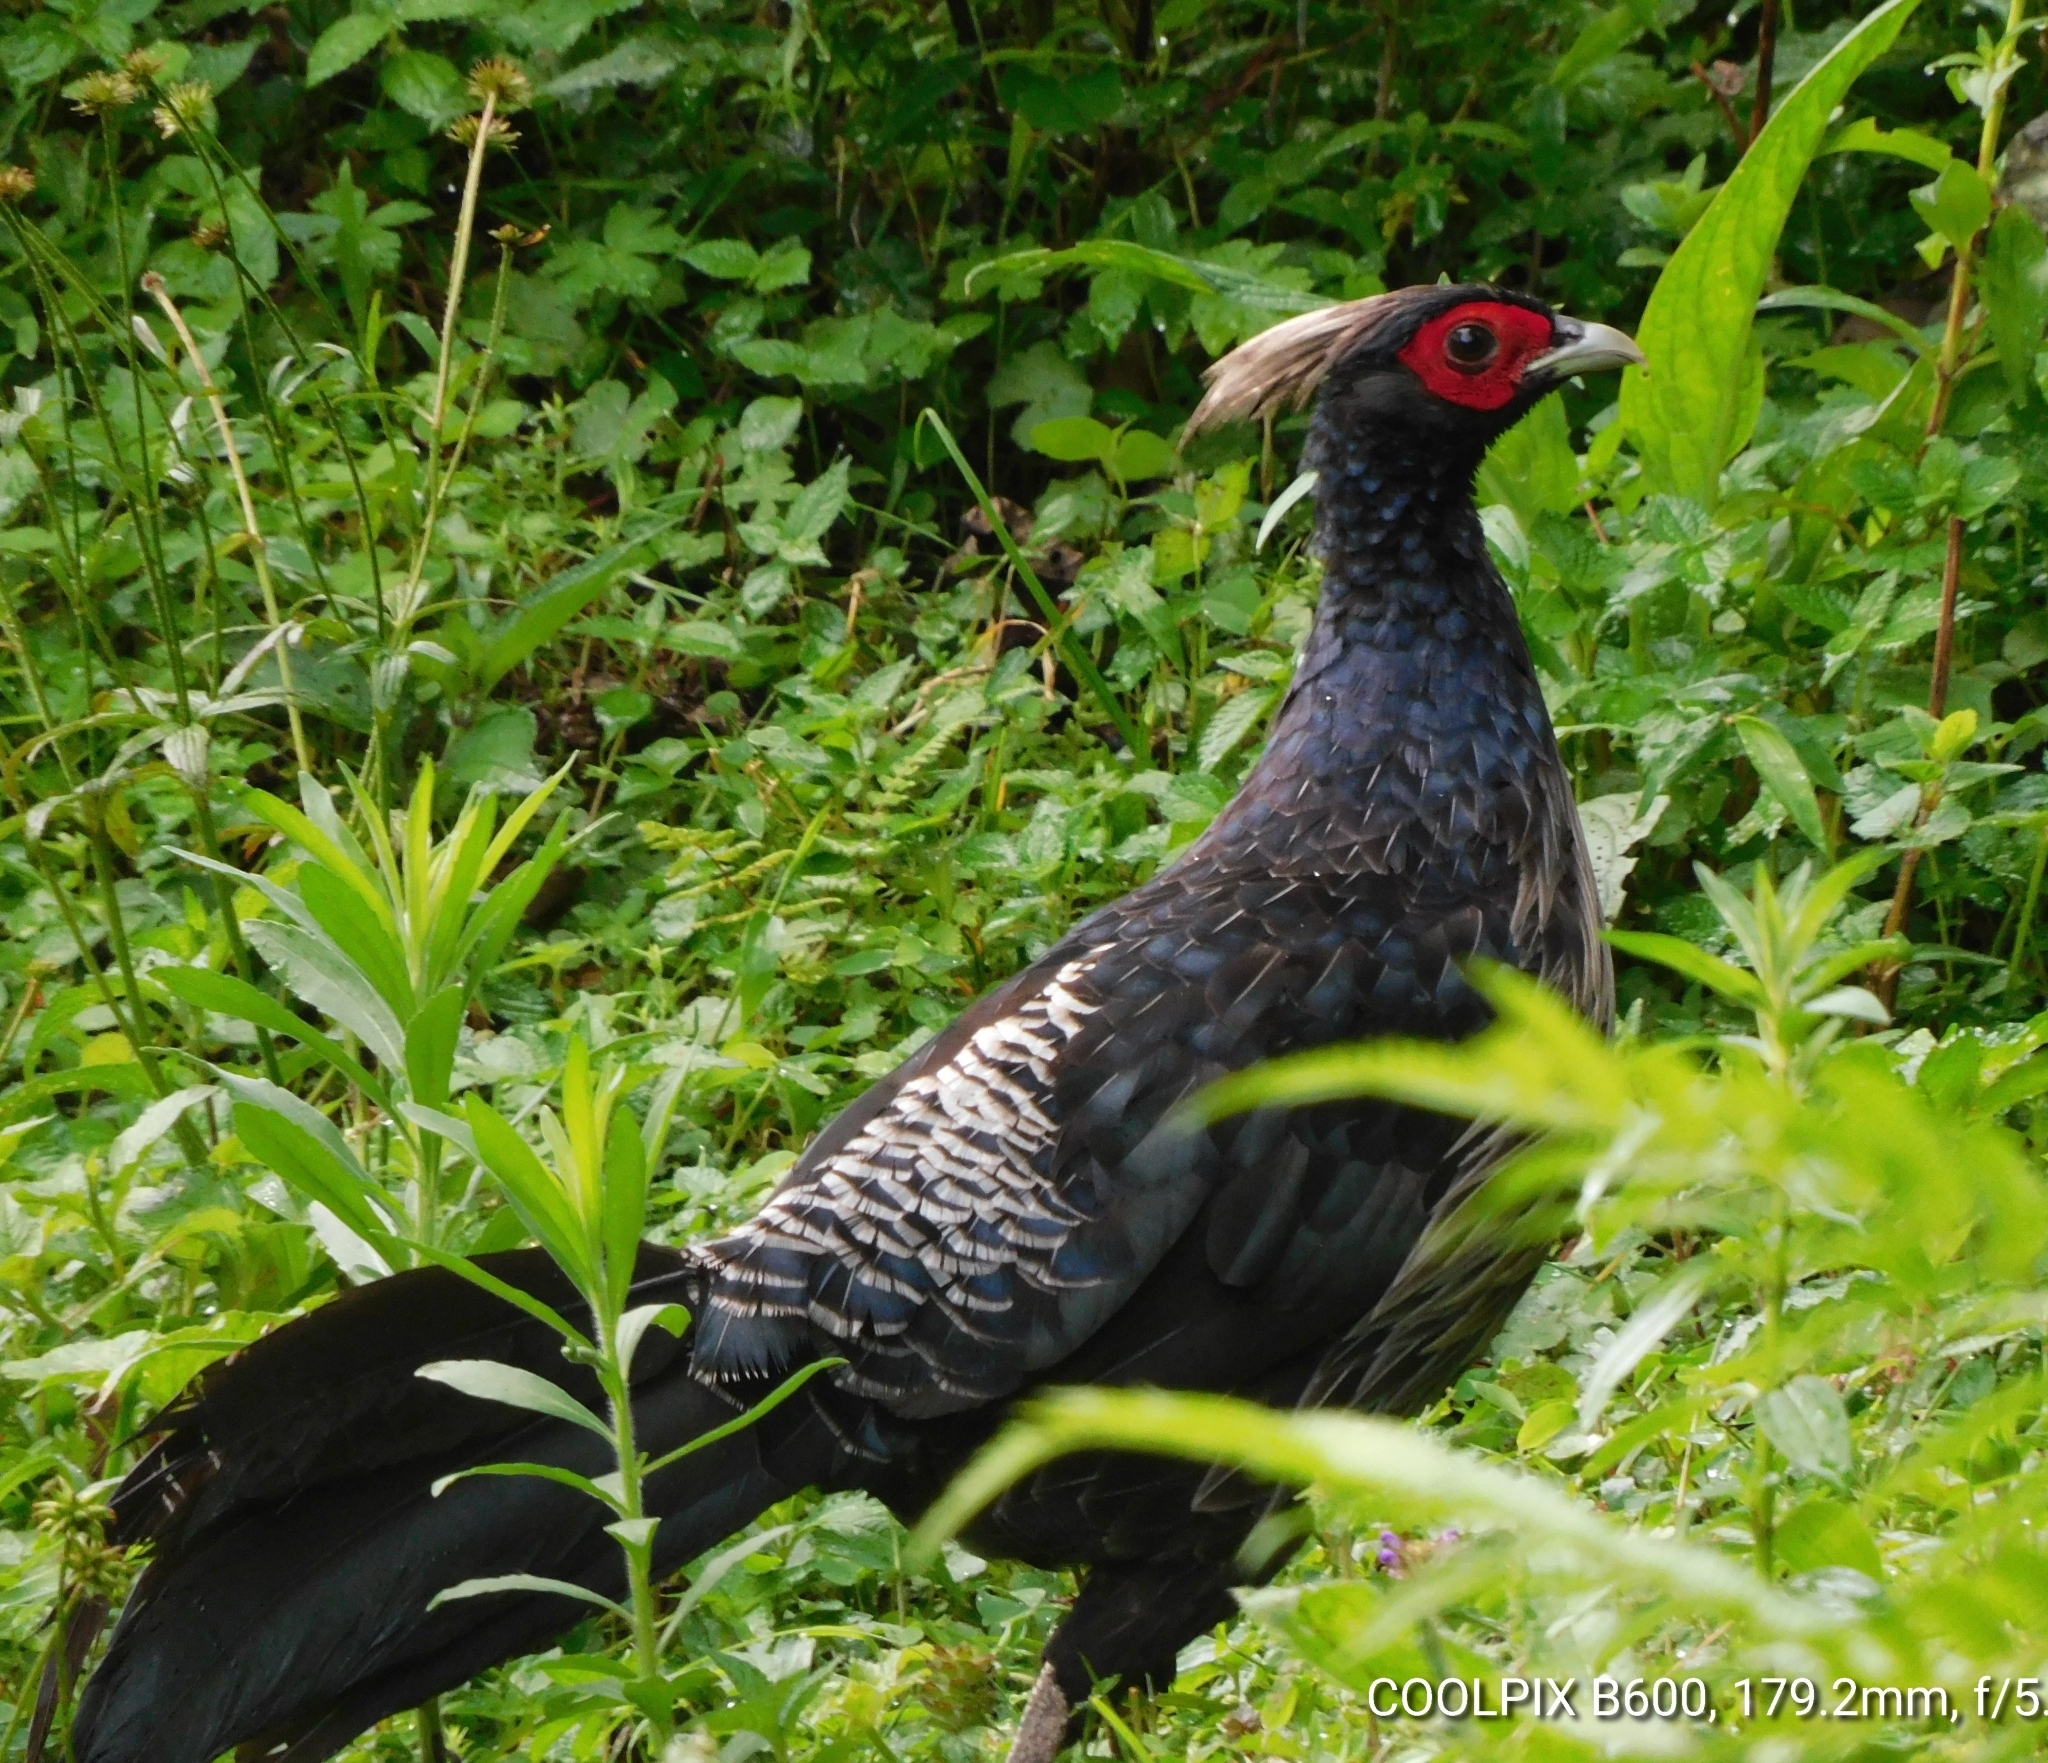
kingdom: Animalia
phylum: Chordata
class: Aves
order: Galliformes
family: Phasianidae
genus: Lophura
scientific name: Lophura leucomelanos
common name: Kalij pheasant
